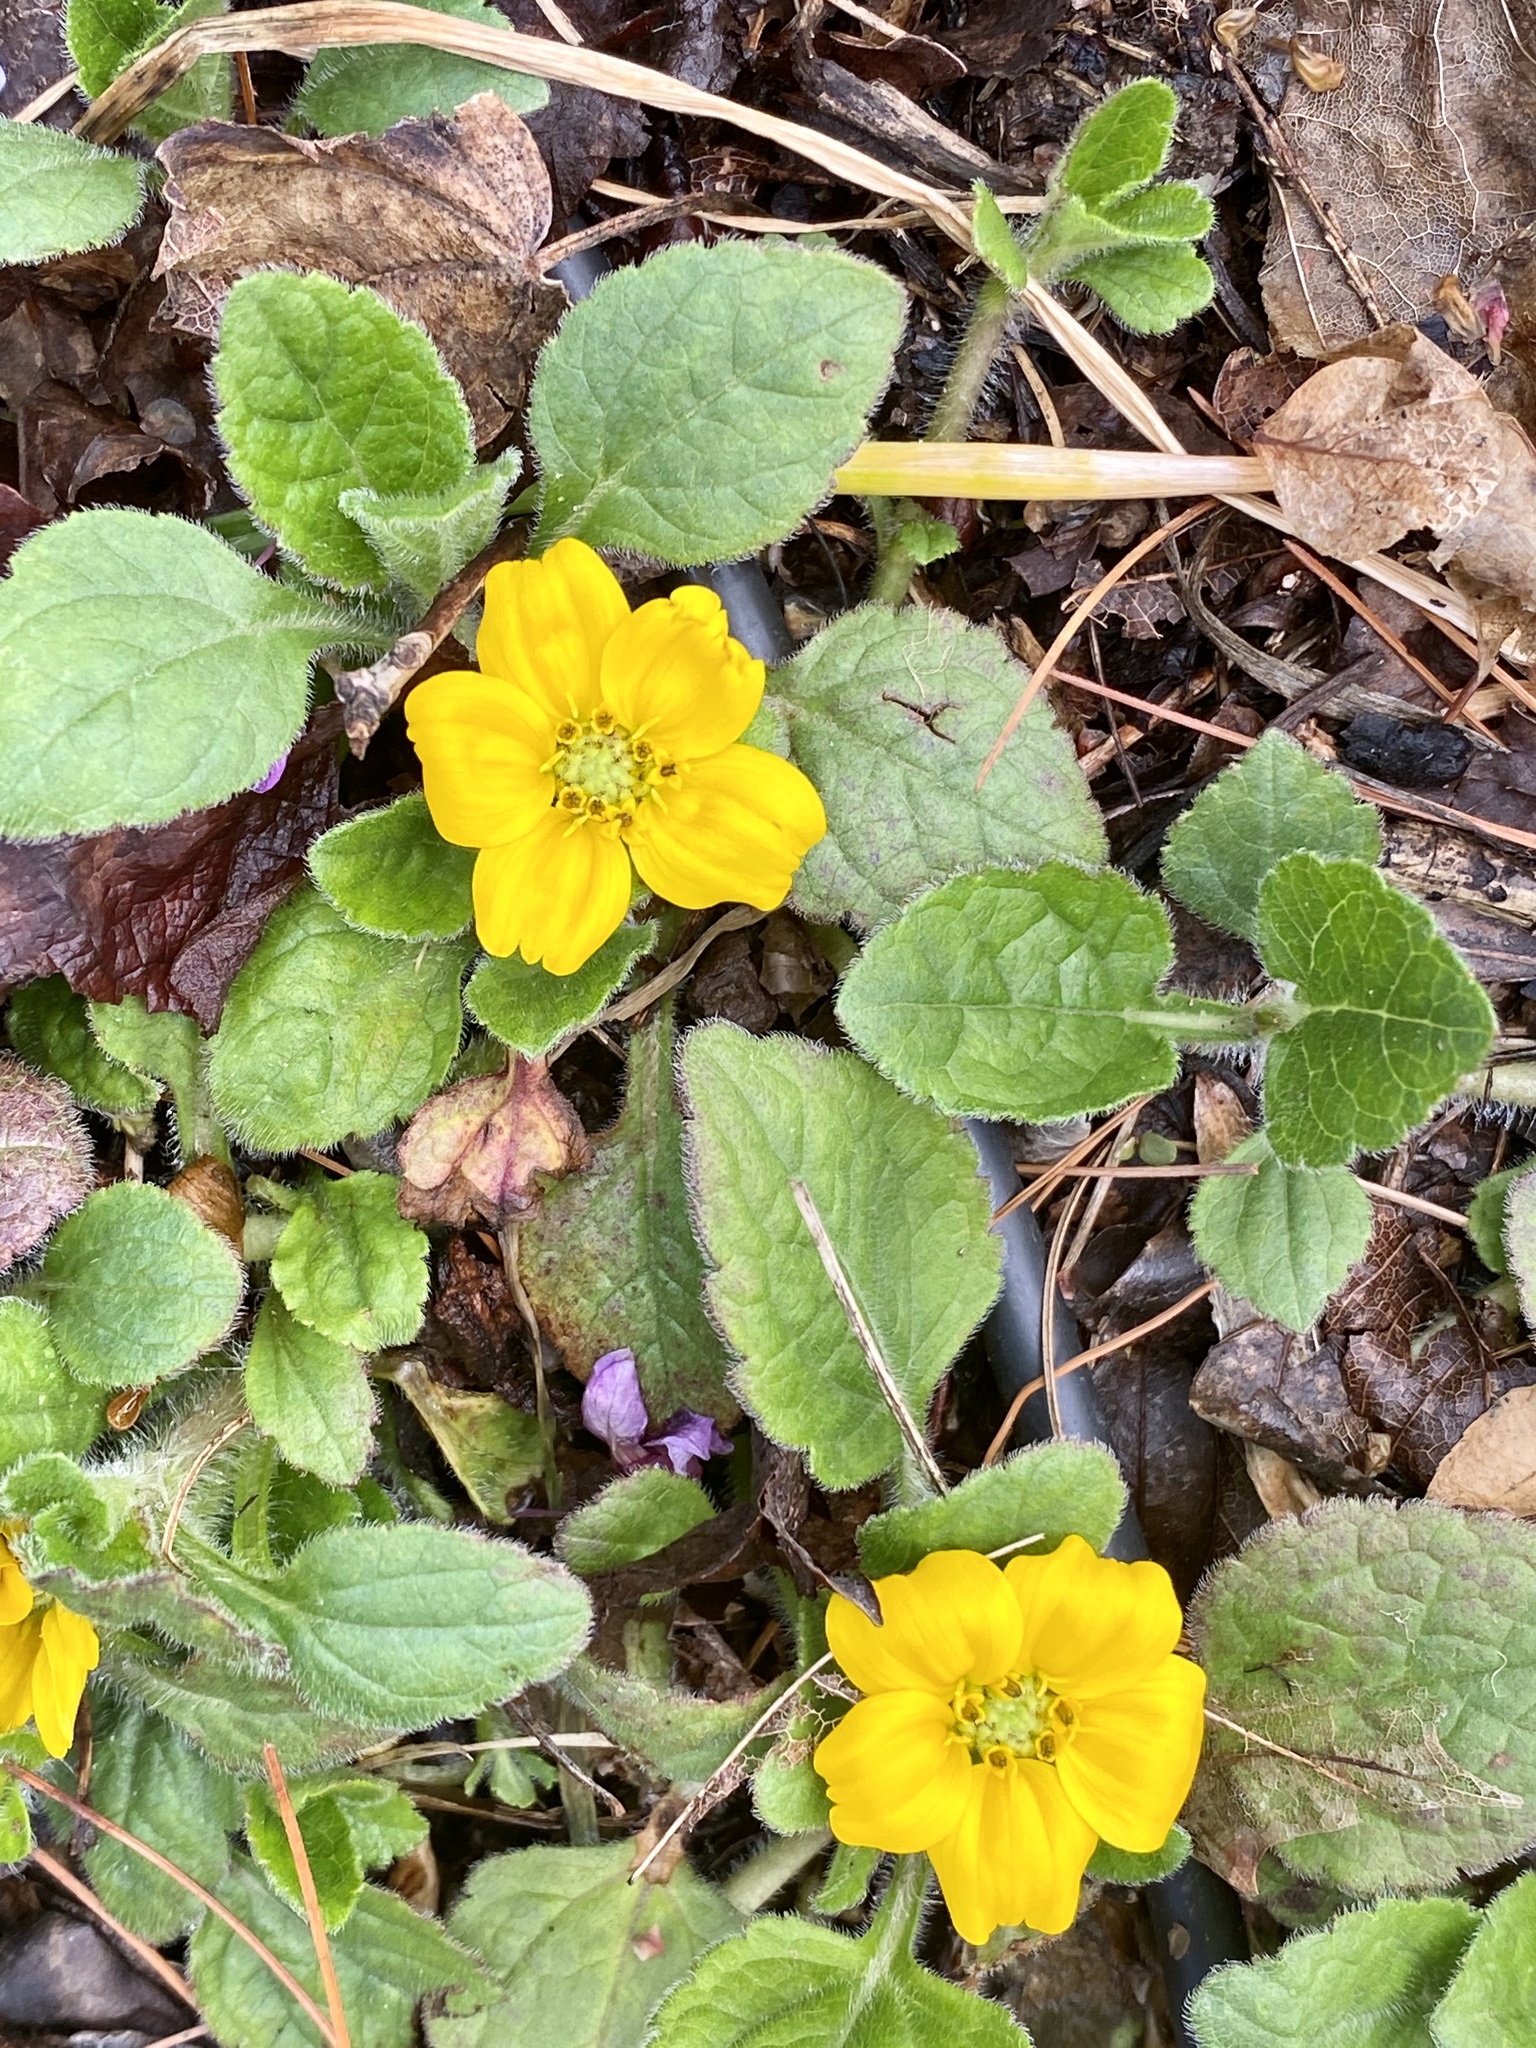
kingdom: Plantae
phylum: Tracheophyta
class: Magnoliopsida
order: Asterales
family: Asteraceae
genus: Chrysogonum
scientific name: Chrysogonum virginianum
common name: Golden-knee
